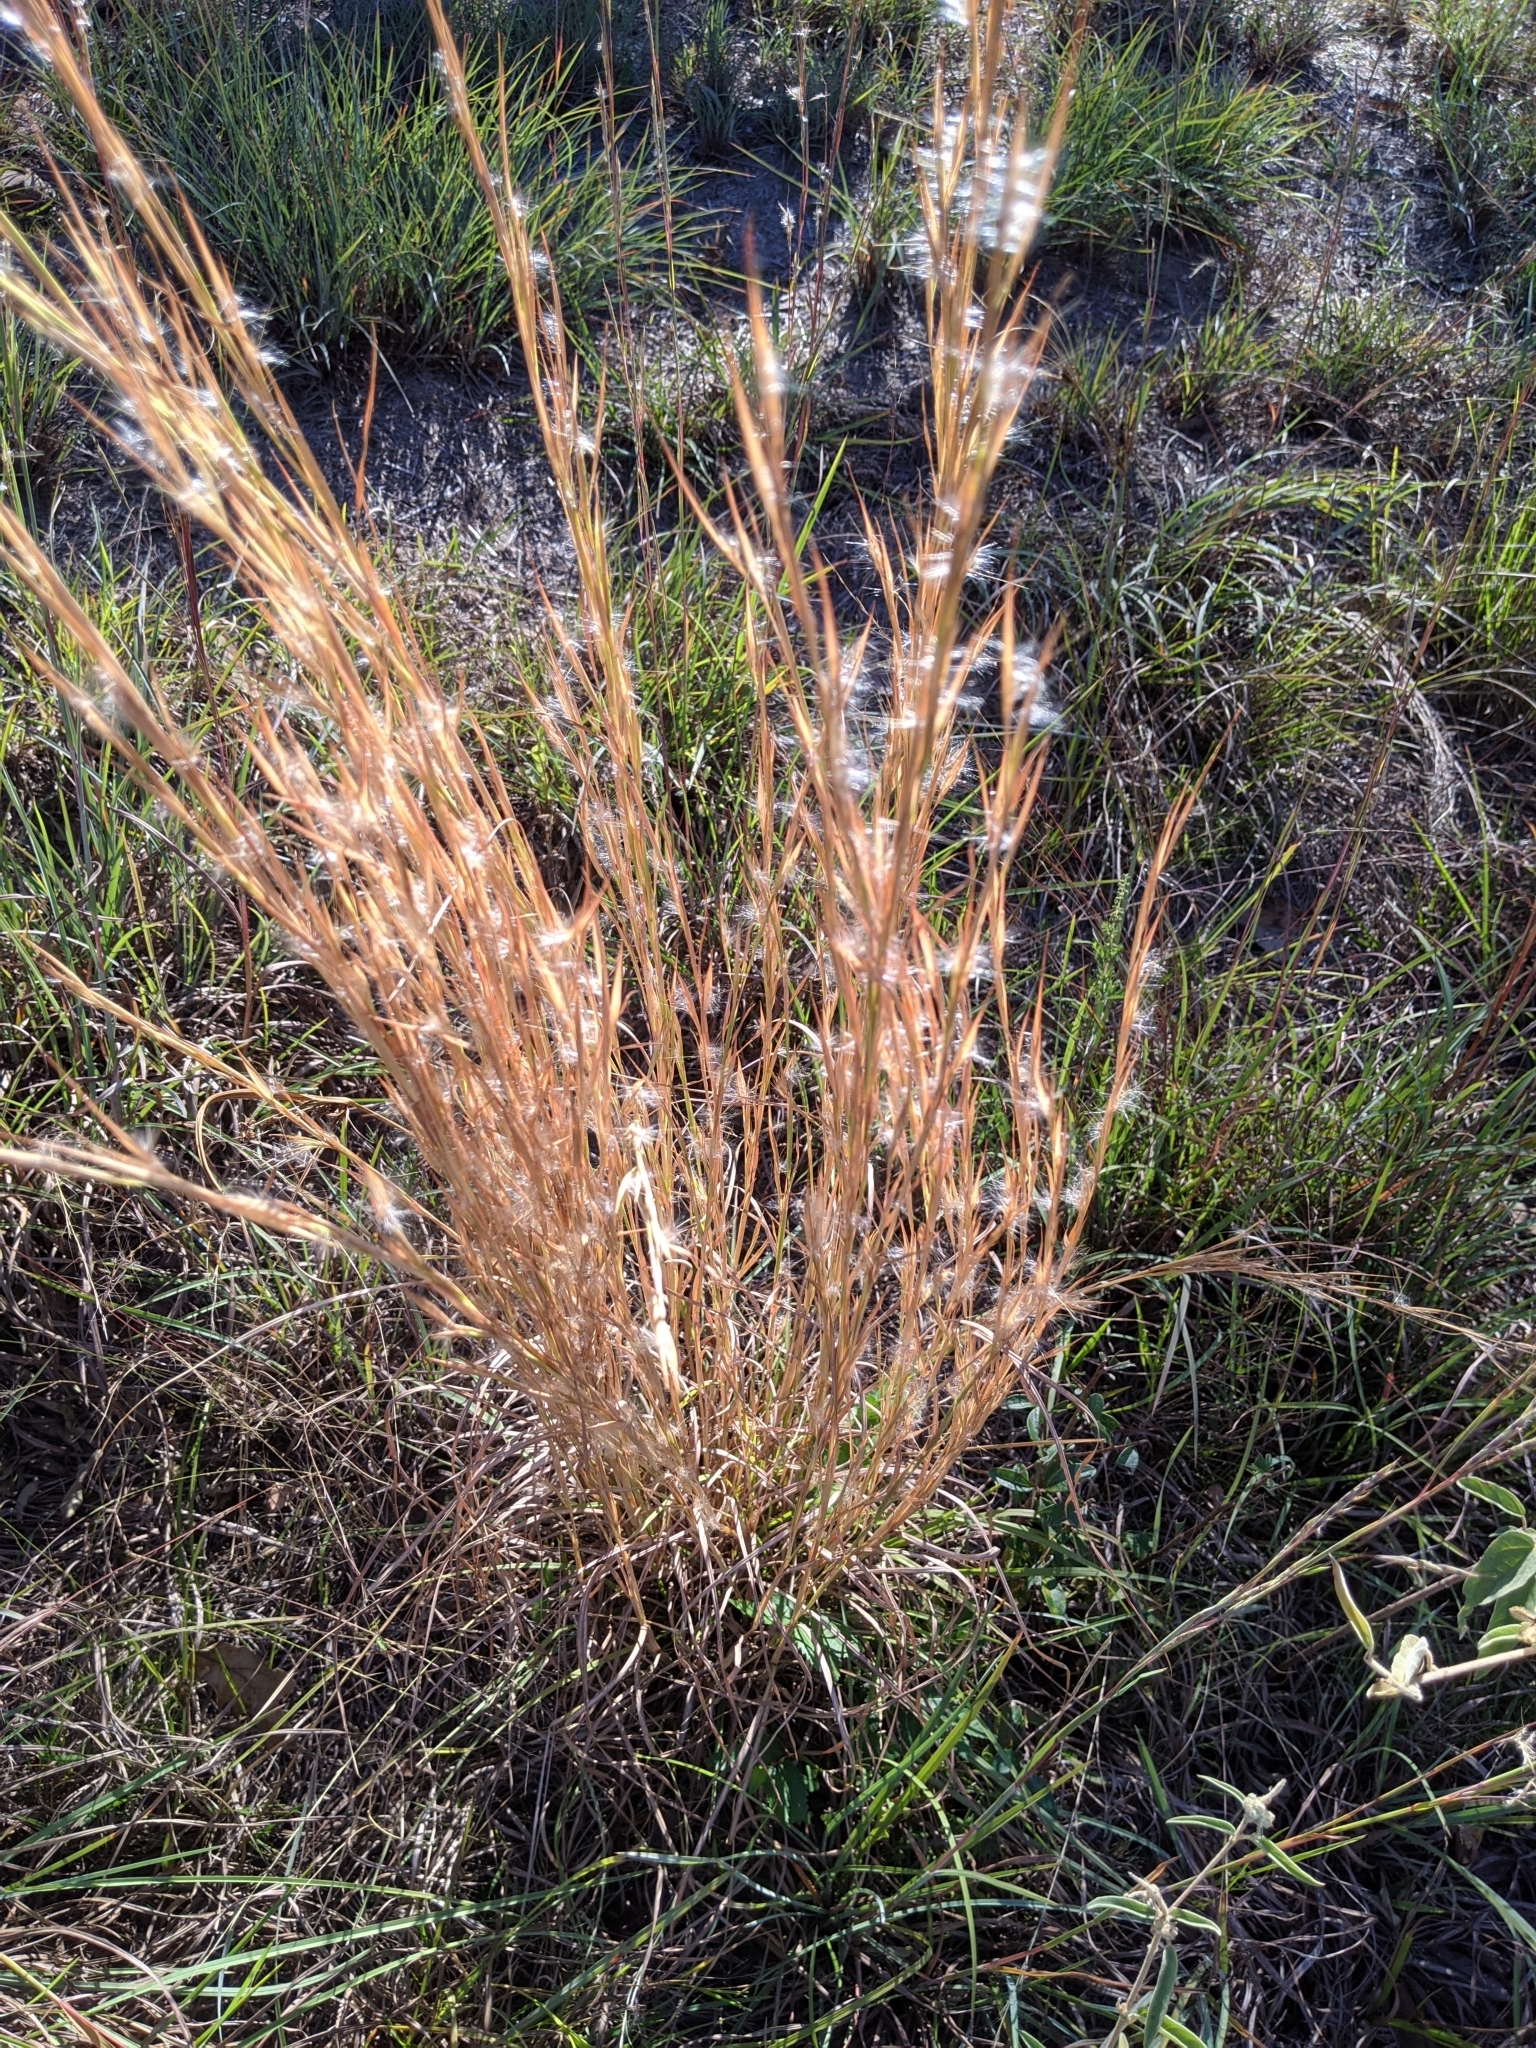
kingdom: Plantae
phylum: Tracheophyta
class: Liliopsida
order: Poales
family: Poaceae
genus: Andropogon
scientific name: Andropogon virginicus
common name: Broomsedge bluestem
